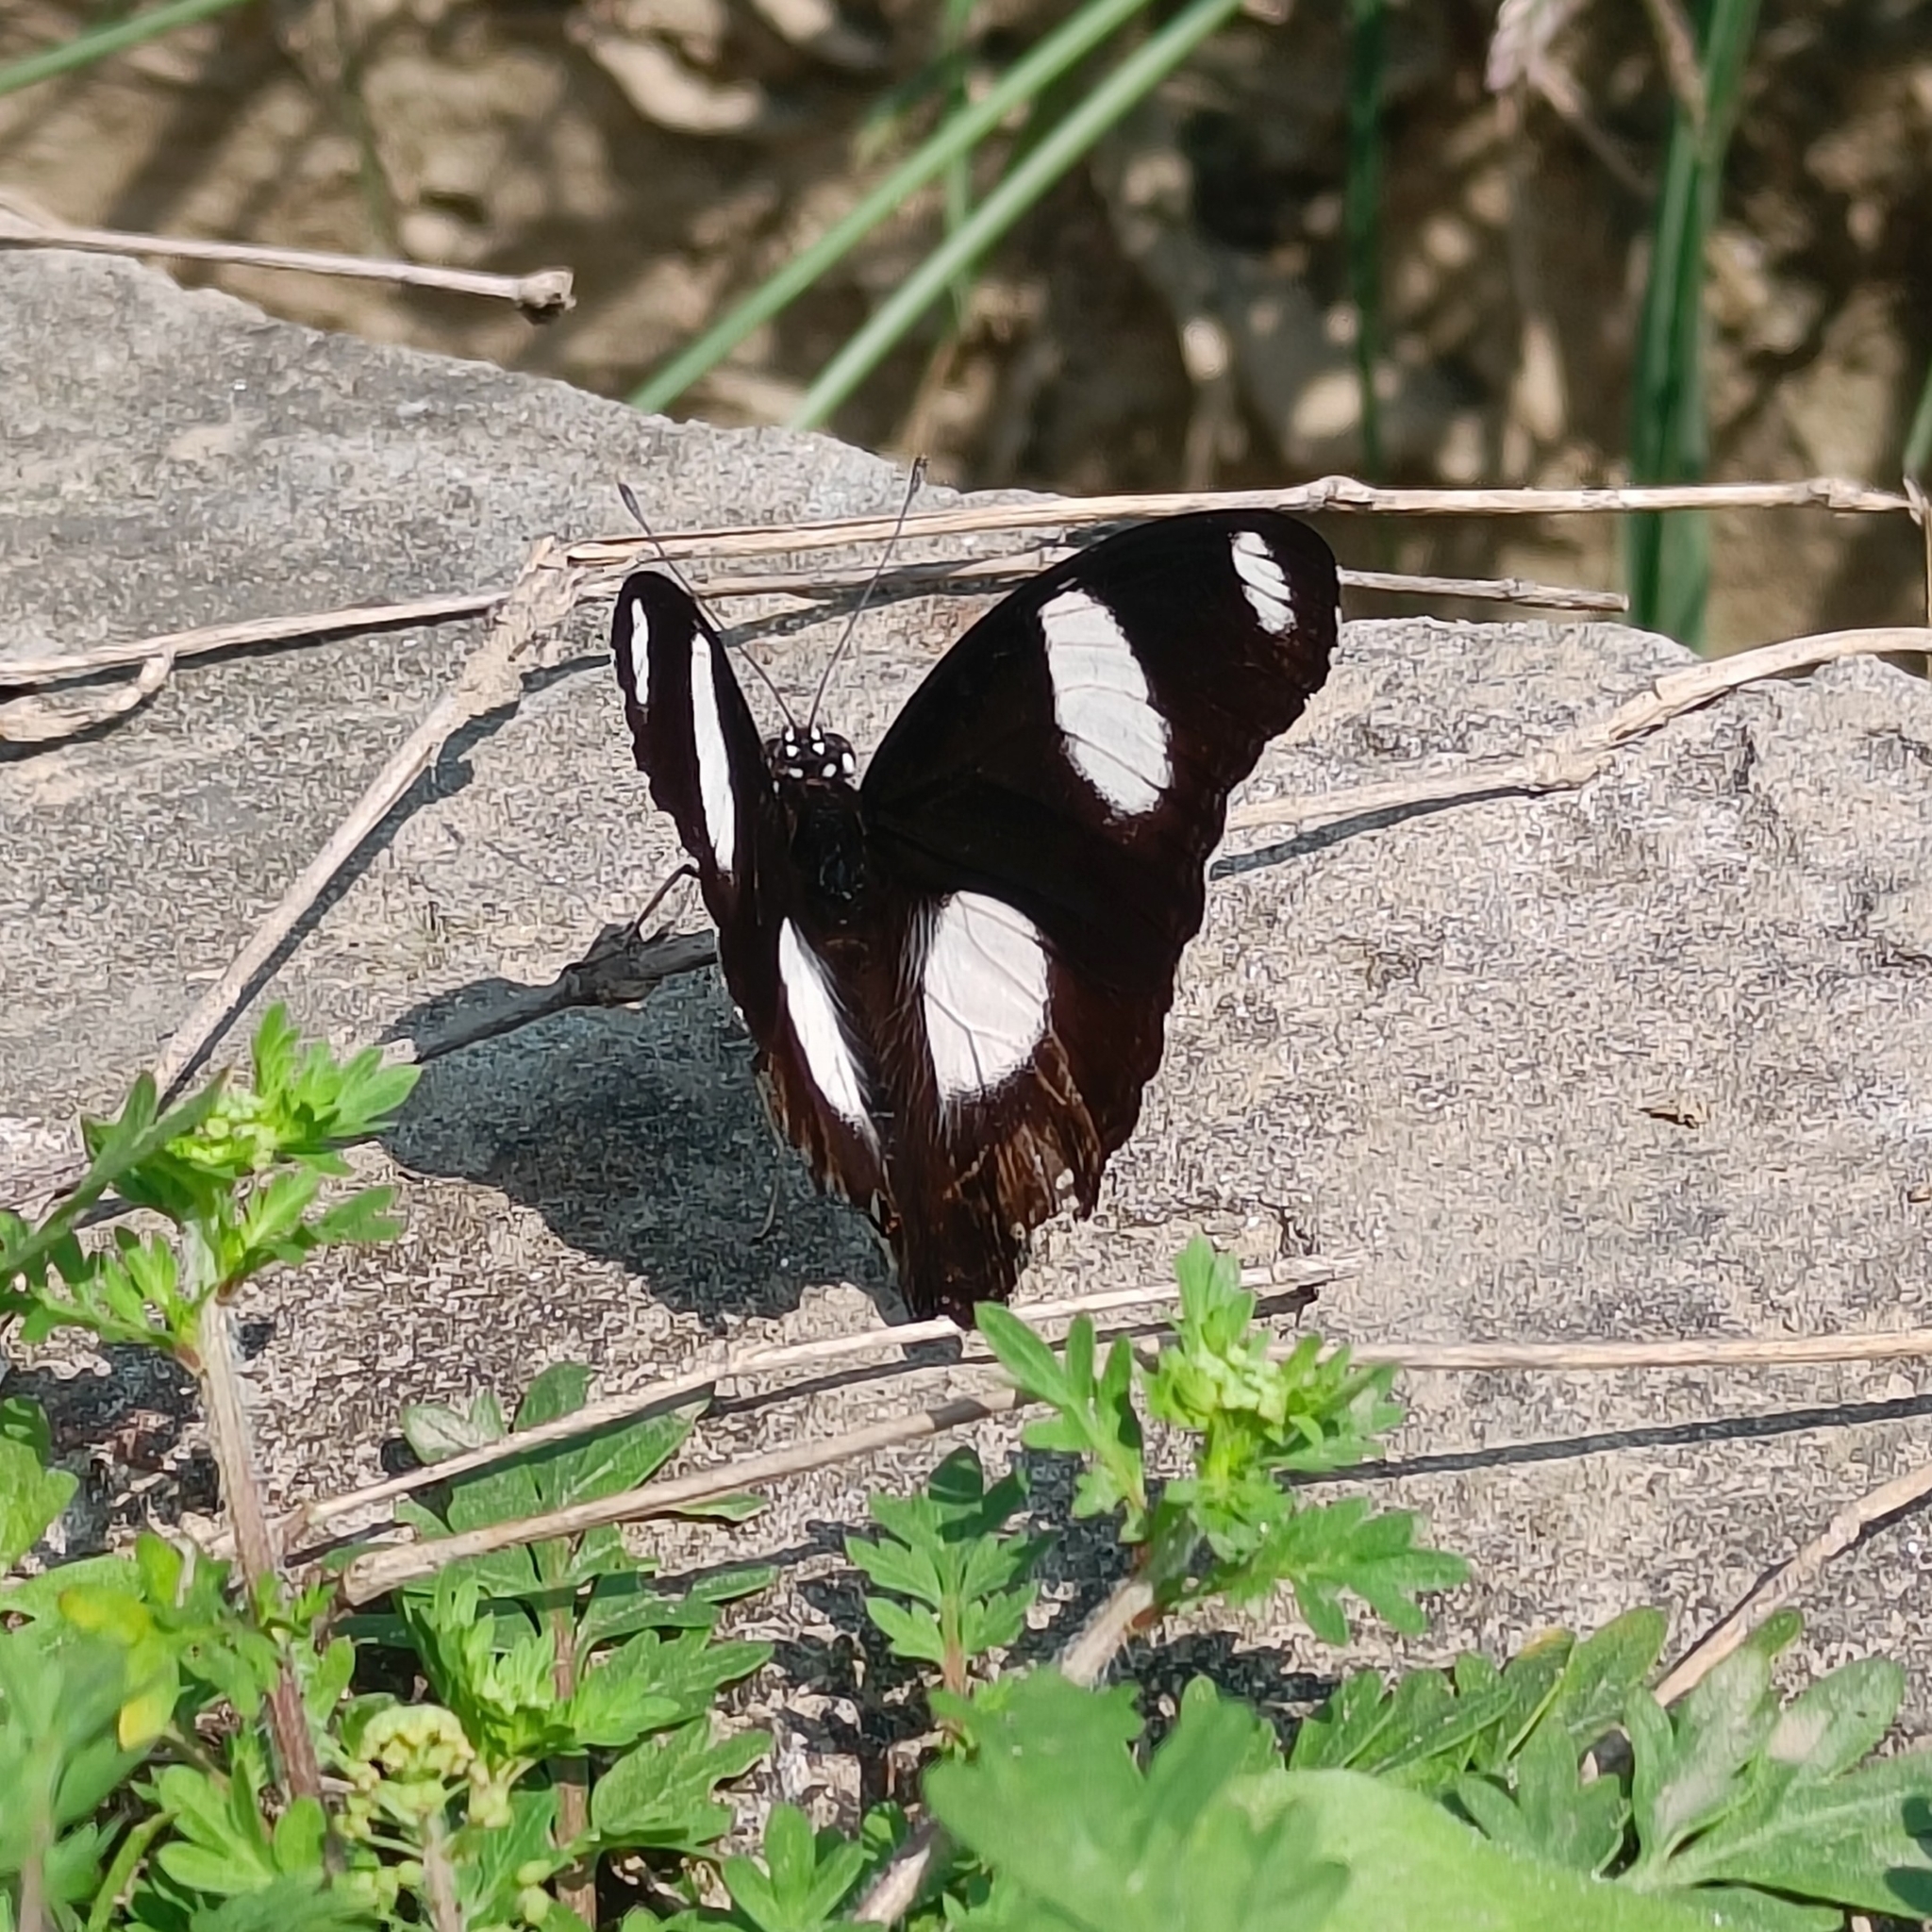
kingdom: Animalia
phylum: Arthropoda
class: Insecta
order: Lepidoptera
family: Nymphalidae
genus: Hypolimnas
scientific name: Hypolimnas misippus
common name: False plain tiger
